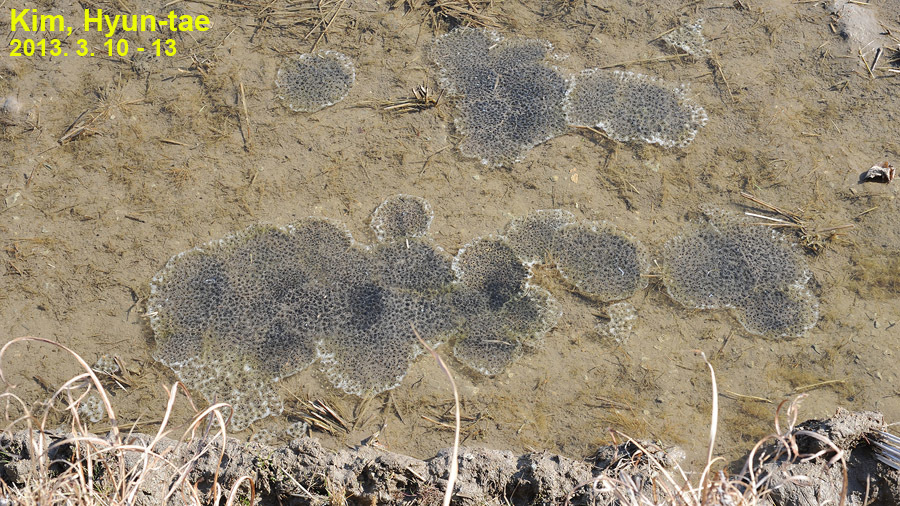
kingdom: Animalia
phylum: Chordata
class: Amphibia
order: Anura
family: Ranidae
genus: Rana
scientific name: Rana uenoi
